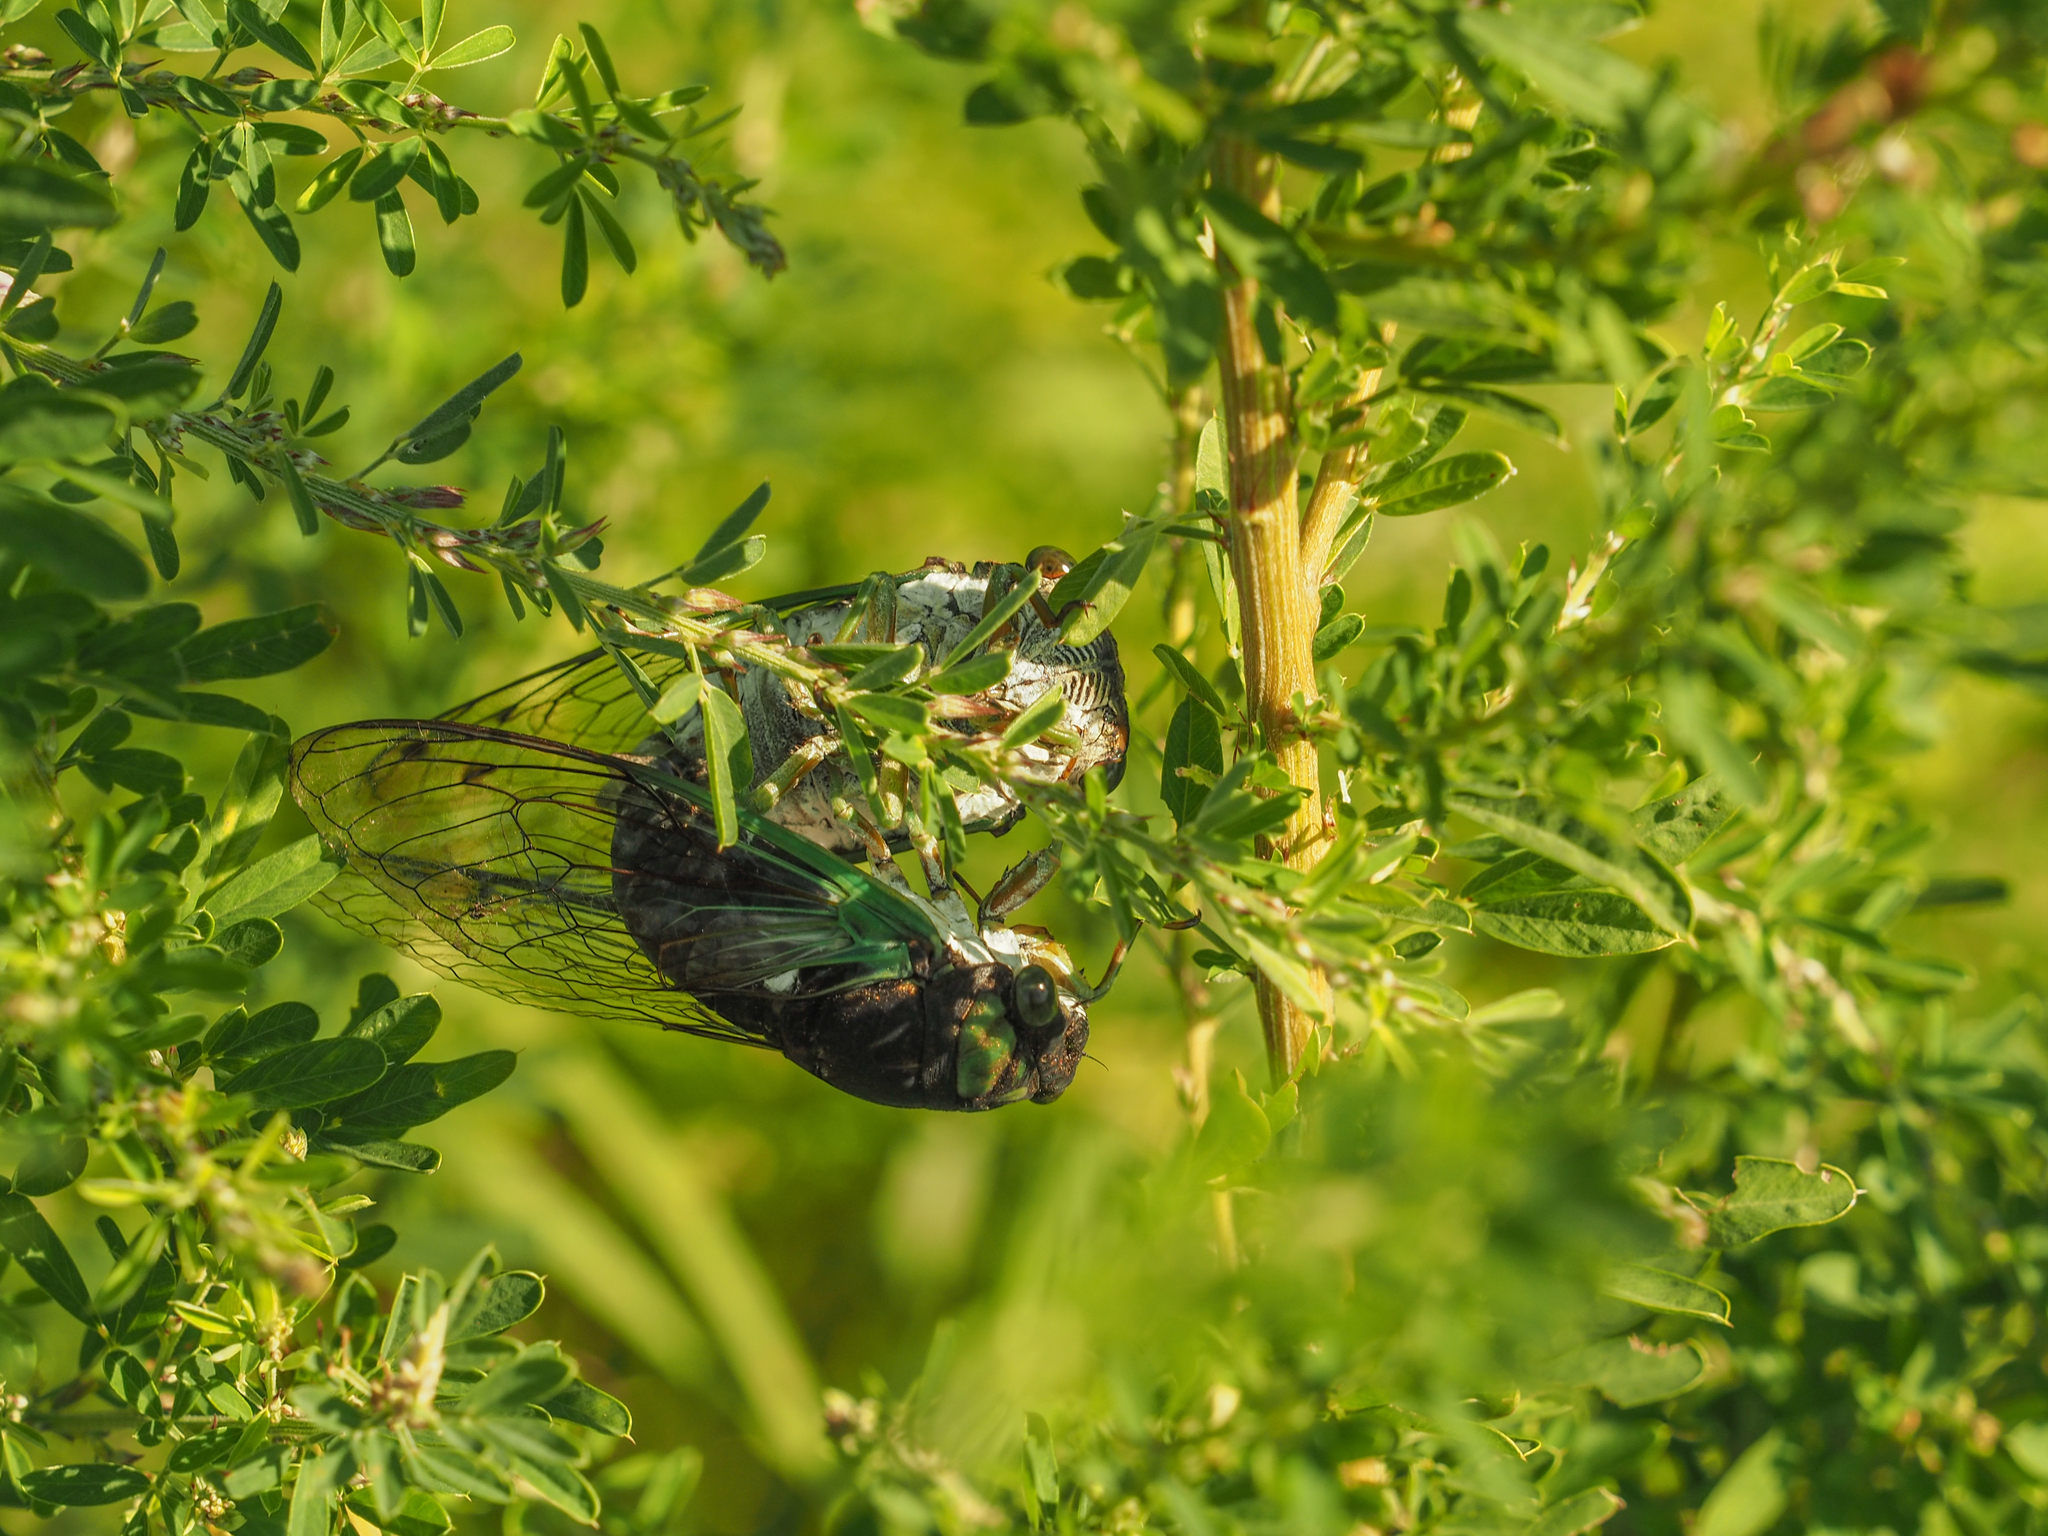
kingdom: Animalia
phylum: Arthropoda
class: Insecta
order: Hemiptera
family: Cicadidae
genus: Neotibicen
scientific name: Neotibicen tibicen
